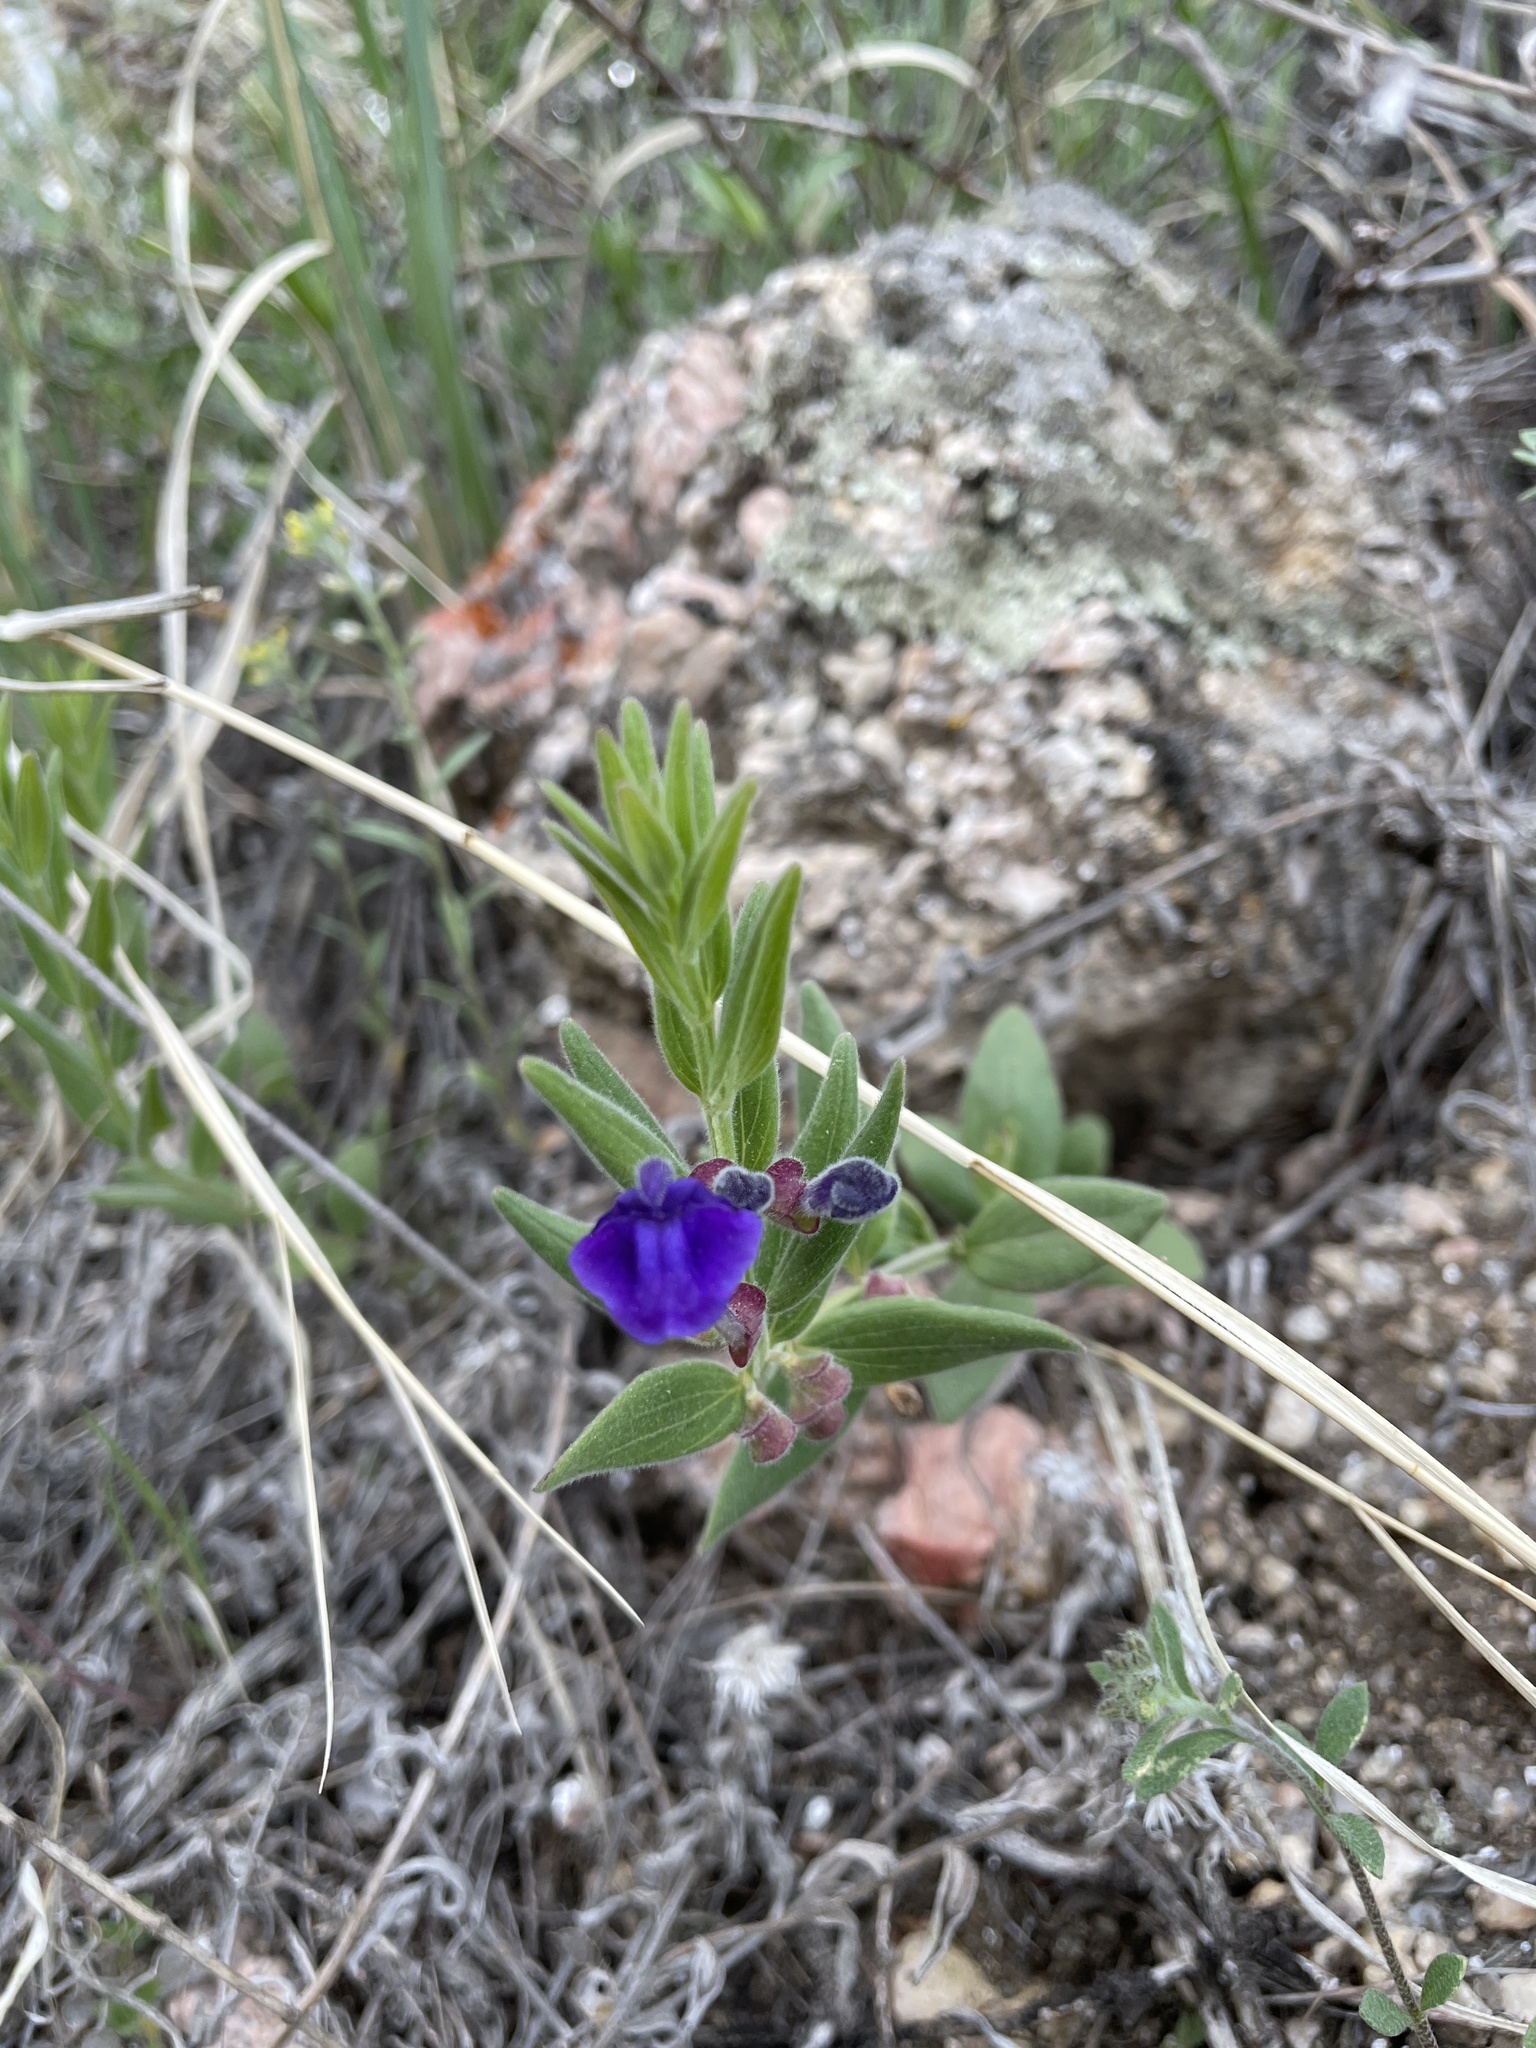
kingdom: Plantae
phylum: Tracheophyta
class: Magnoliopsida
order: Lamiales
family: Lamiaceae
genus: Scutellaria
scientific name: Scutellaria brittonii
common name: Britton's skullcap
